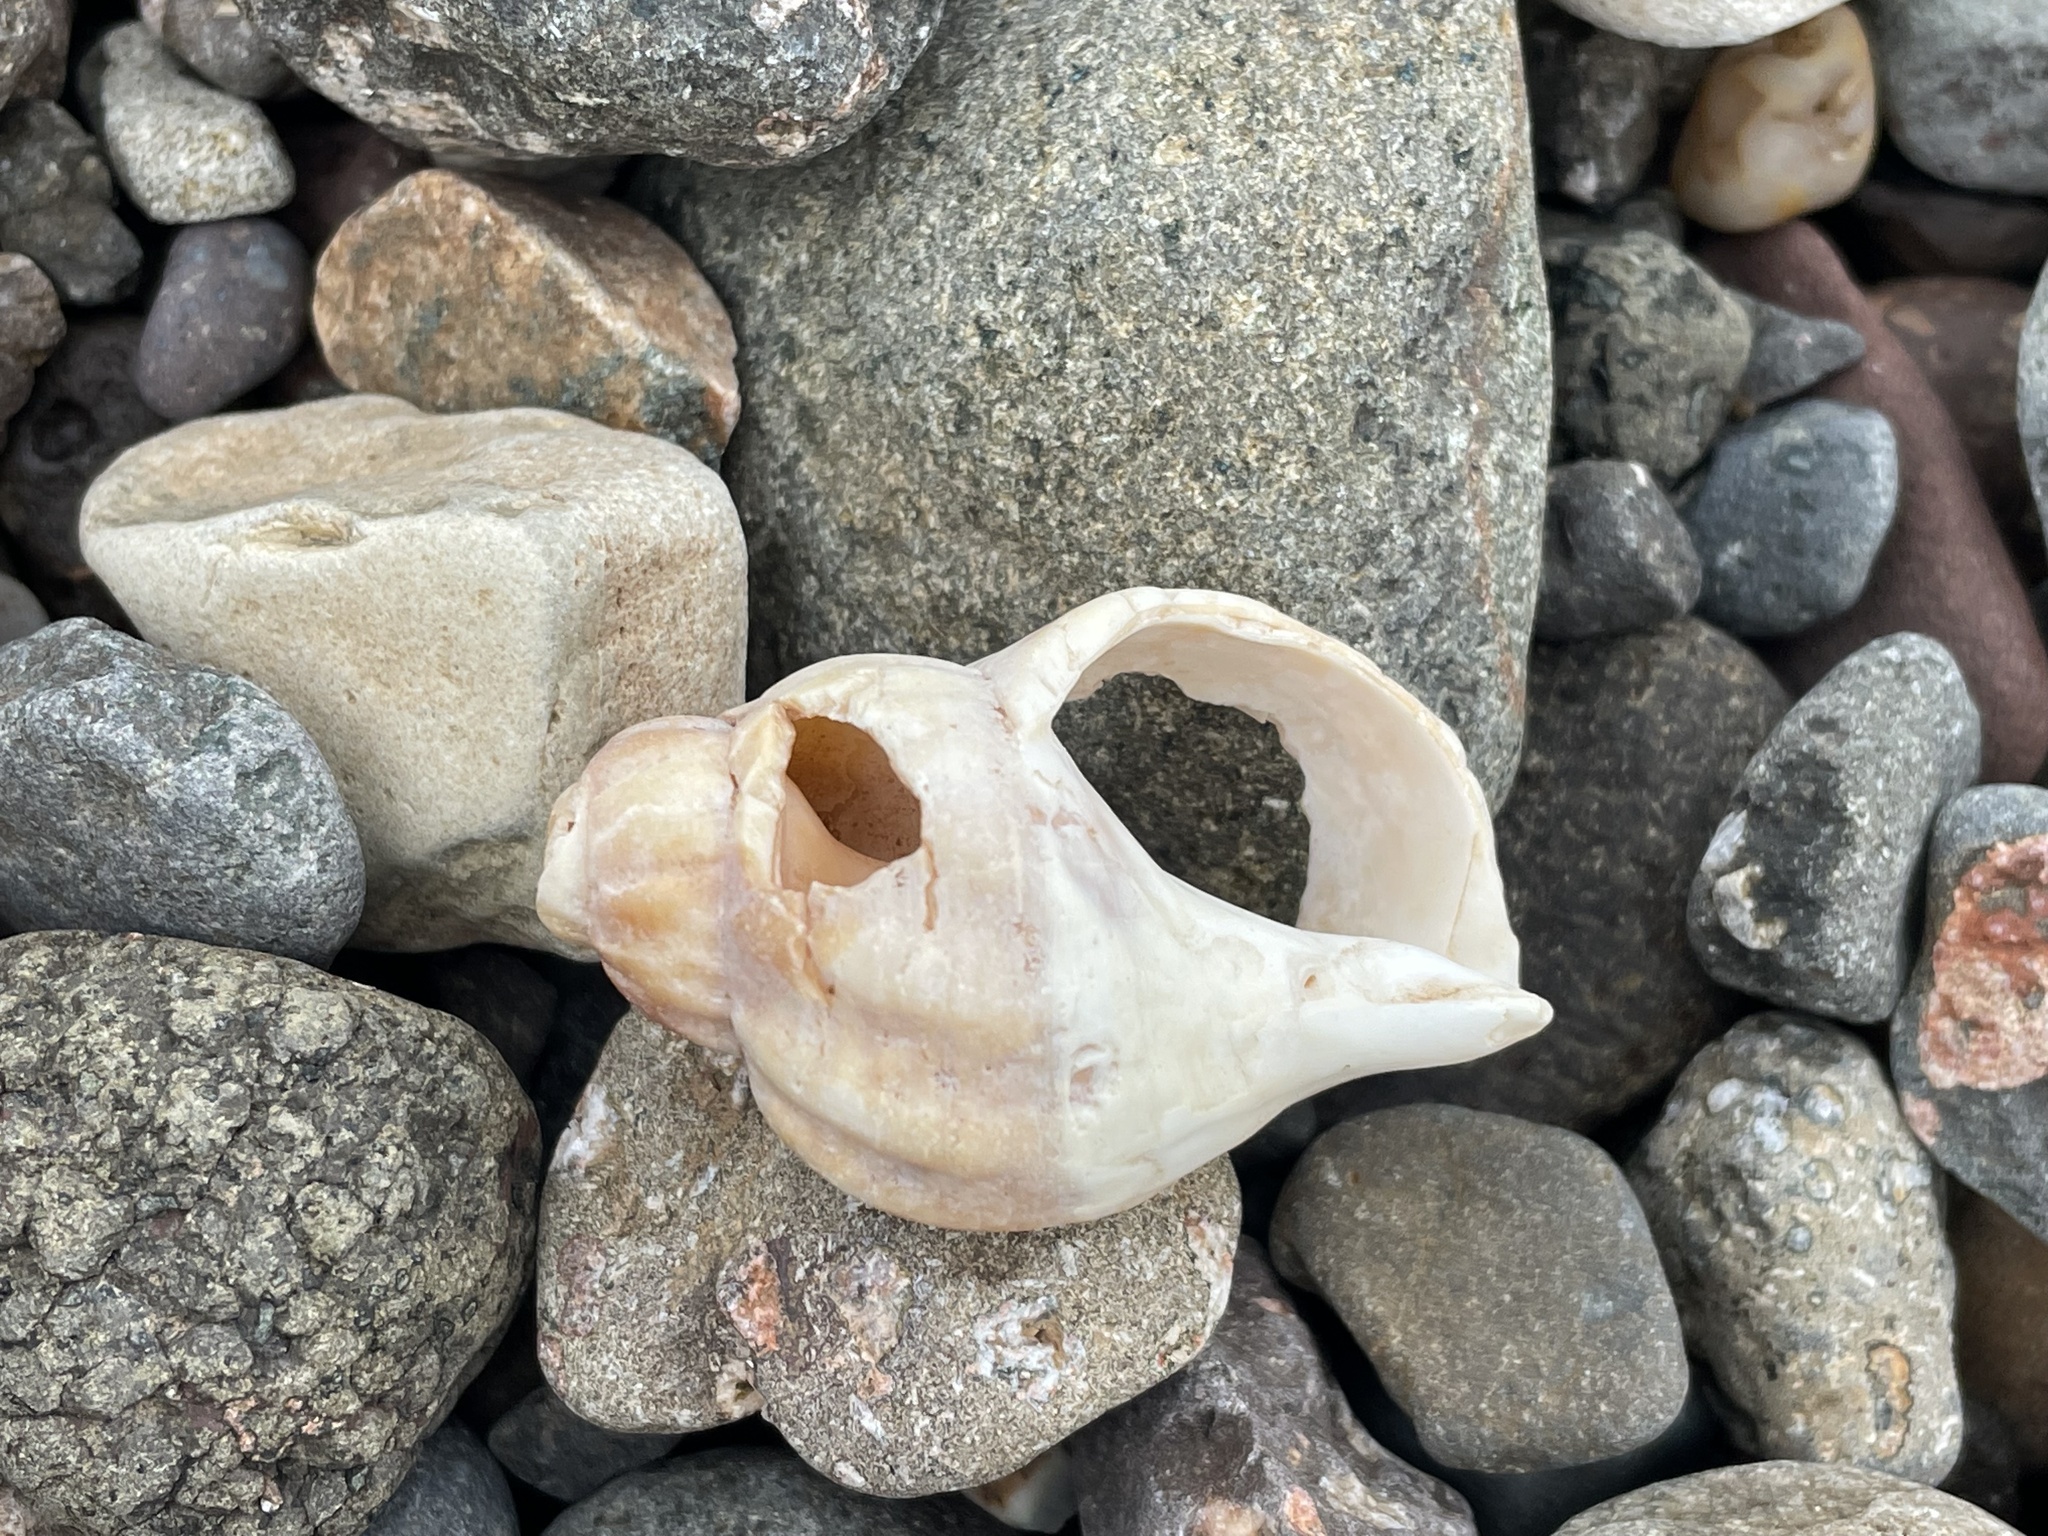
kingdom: Animalia
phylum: Mollusca
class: Gastropoda
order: Neogastropoda
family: Buccinidae
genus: Buccinum
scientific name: Buccinum undatum
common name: Common whelk
